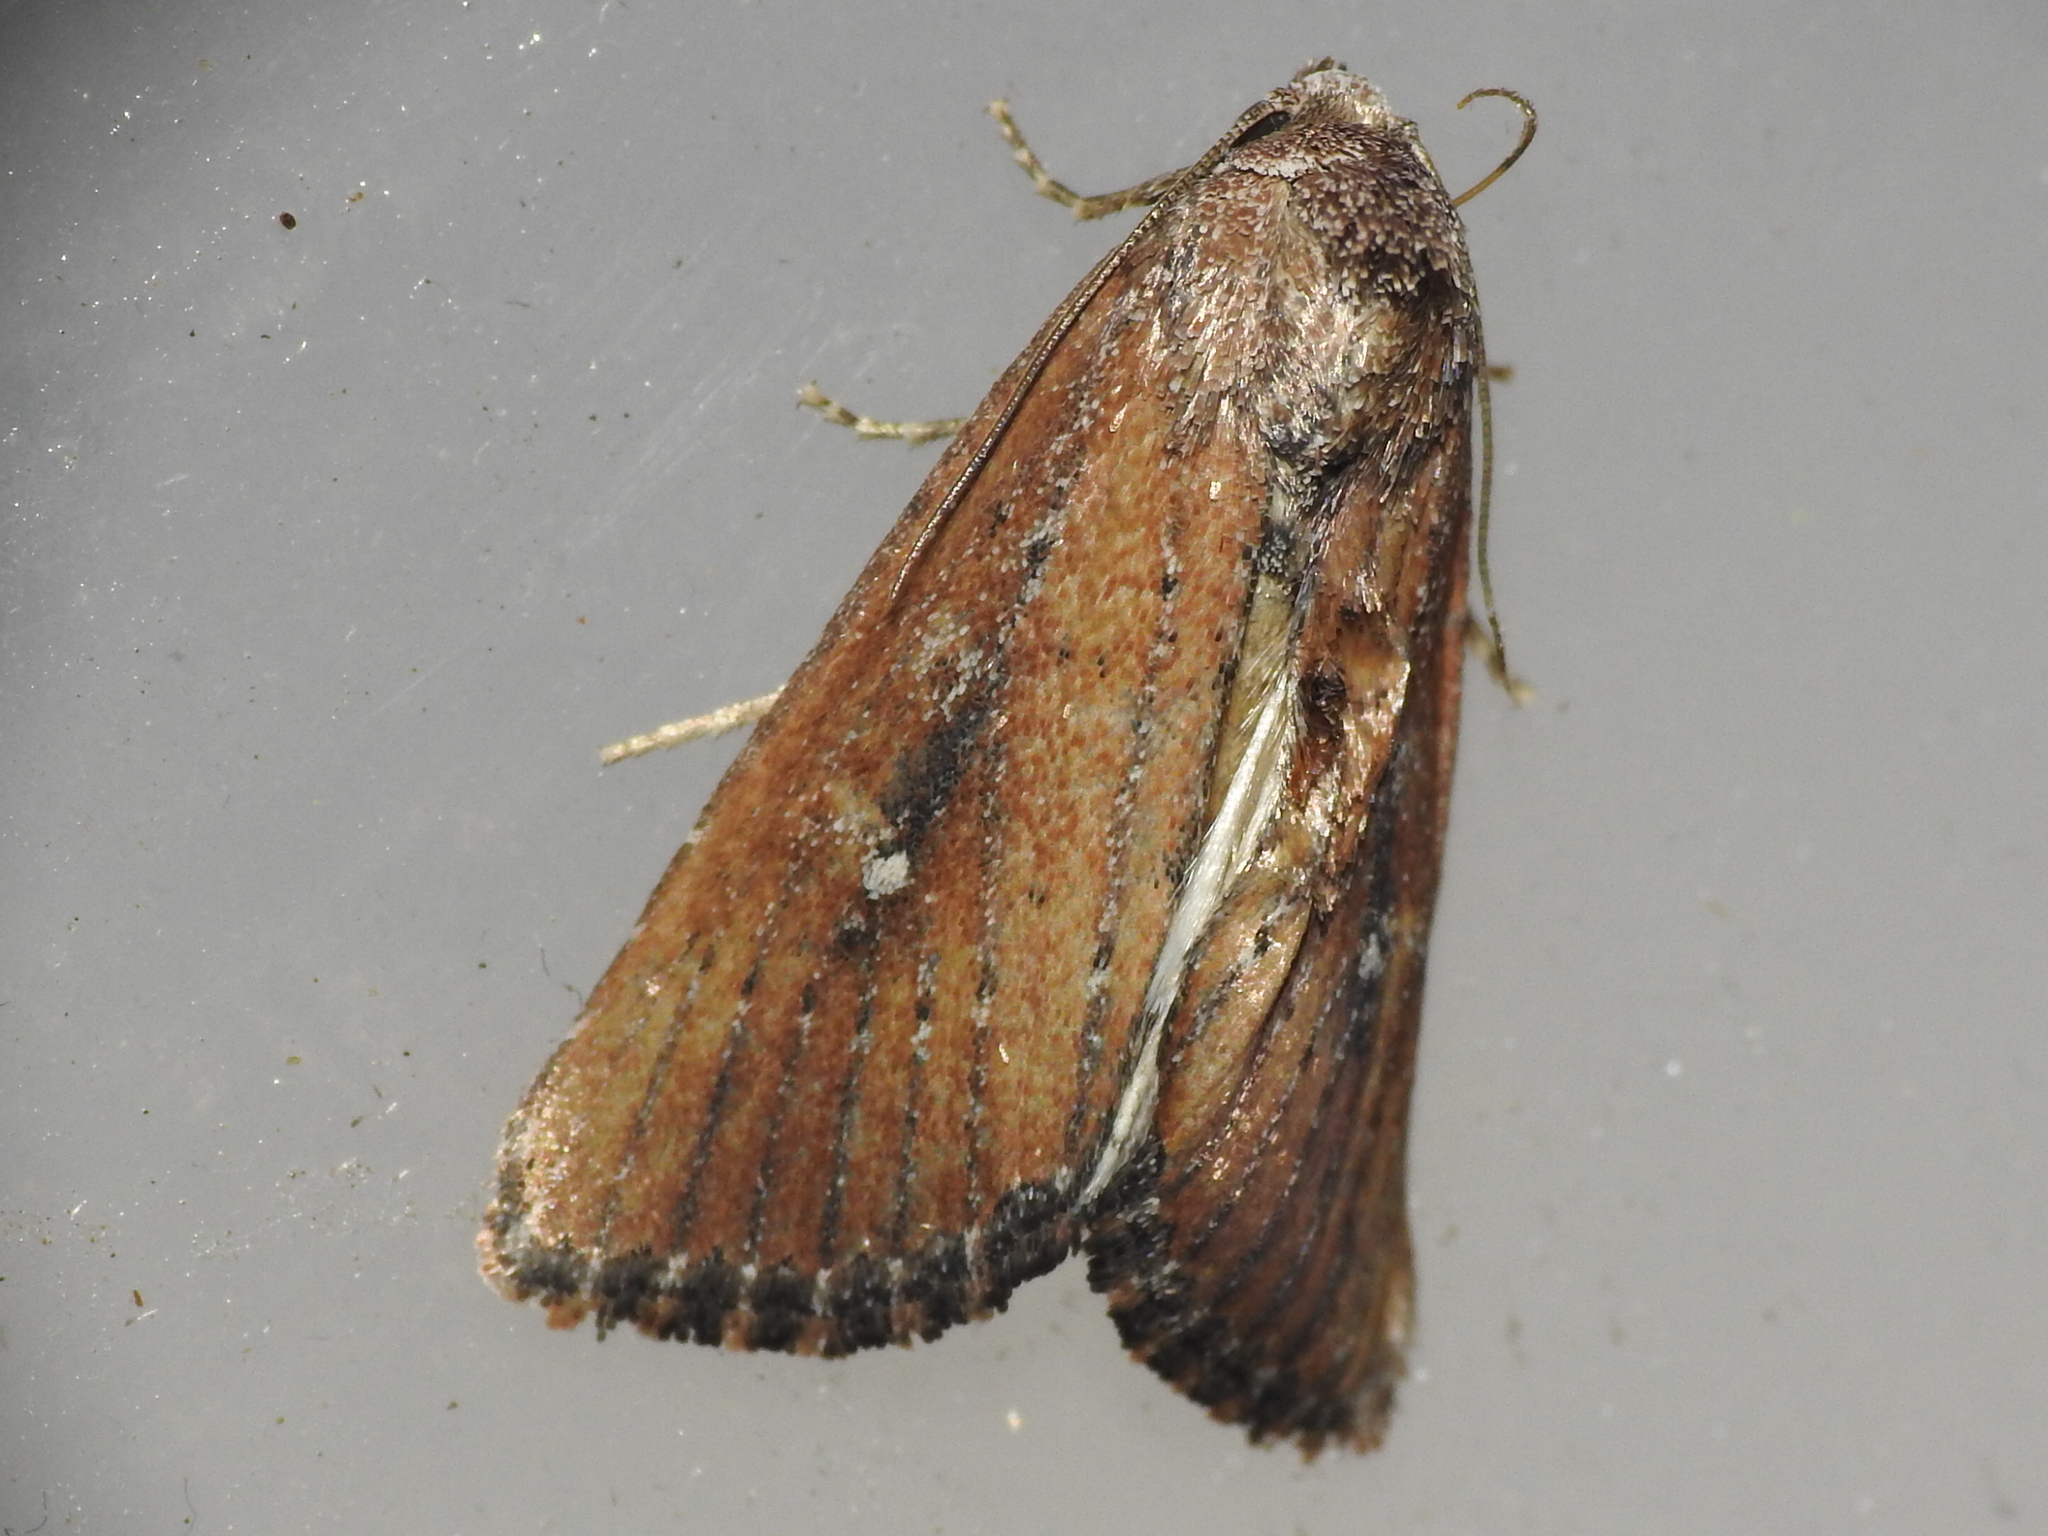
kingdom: Animalia
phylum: Arthropoda
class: Insecta
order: Lepidoptera
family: Noctuidae
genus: Condica
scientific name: Condica videns
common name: White-dotted groundling
